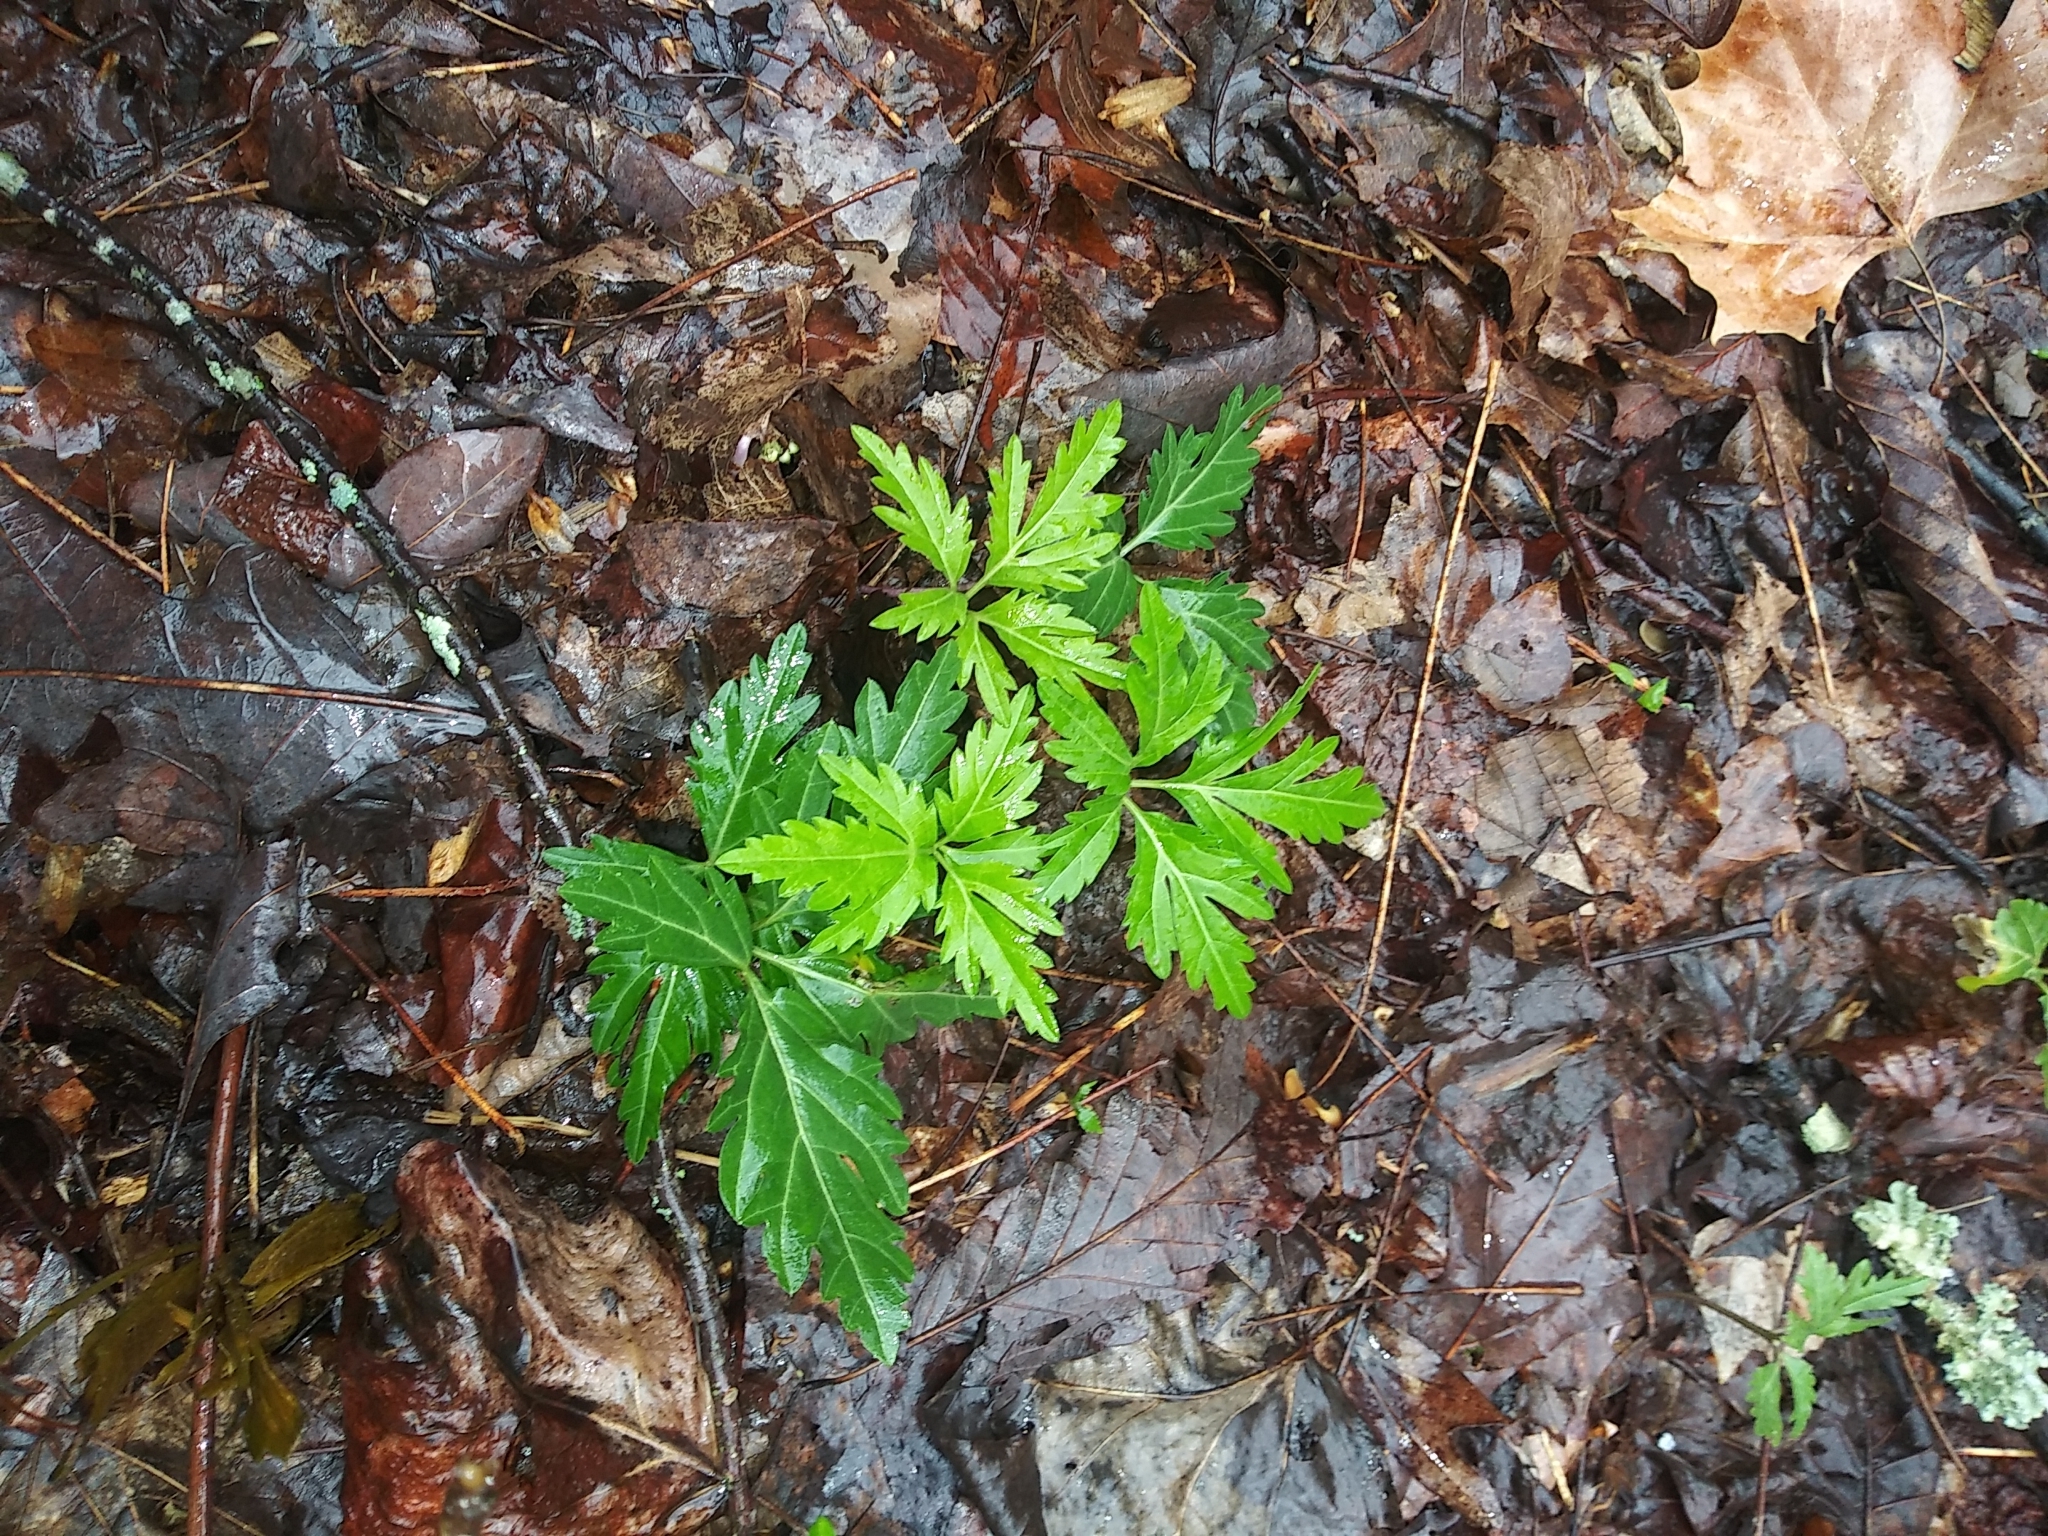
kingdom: Plantae
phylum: Tracheophyta
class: Magnoliopsida
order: Brassicales
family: Brassicaceae
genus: Cardamine
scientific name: Cardamine concatenata
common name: Cut-leaf toothcup
